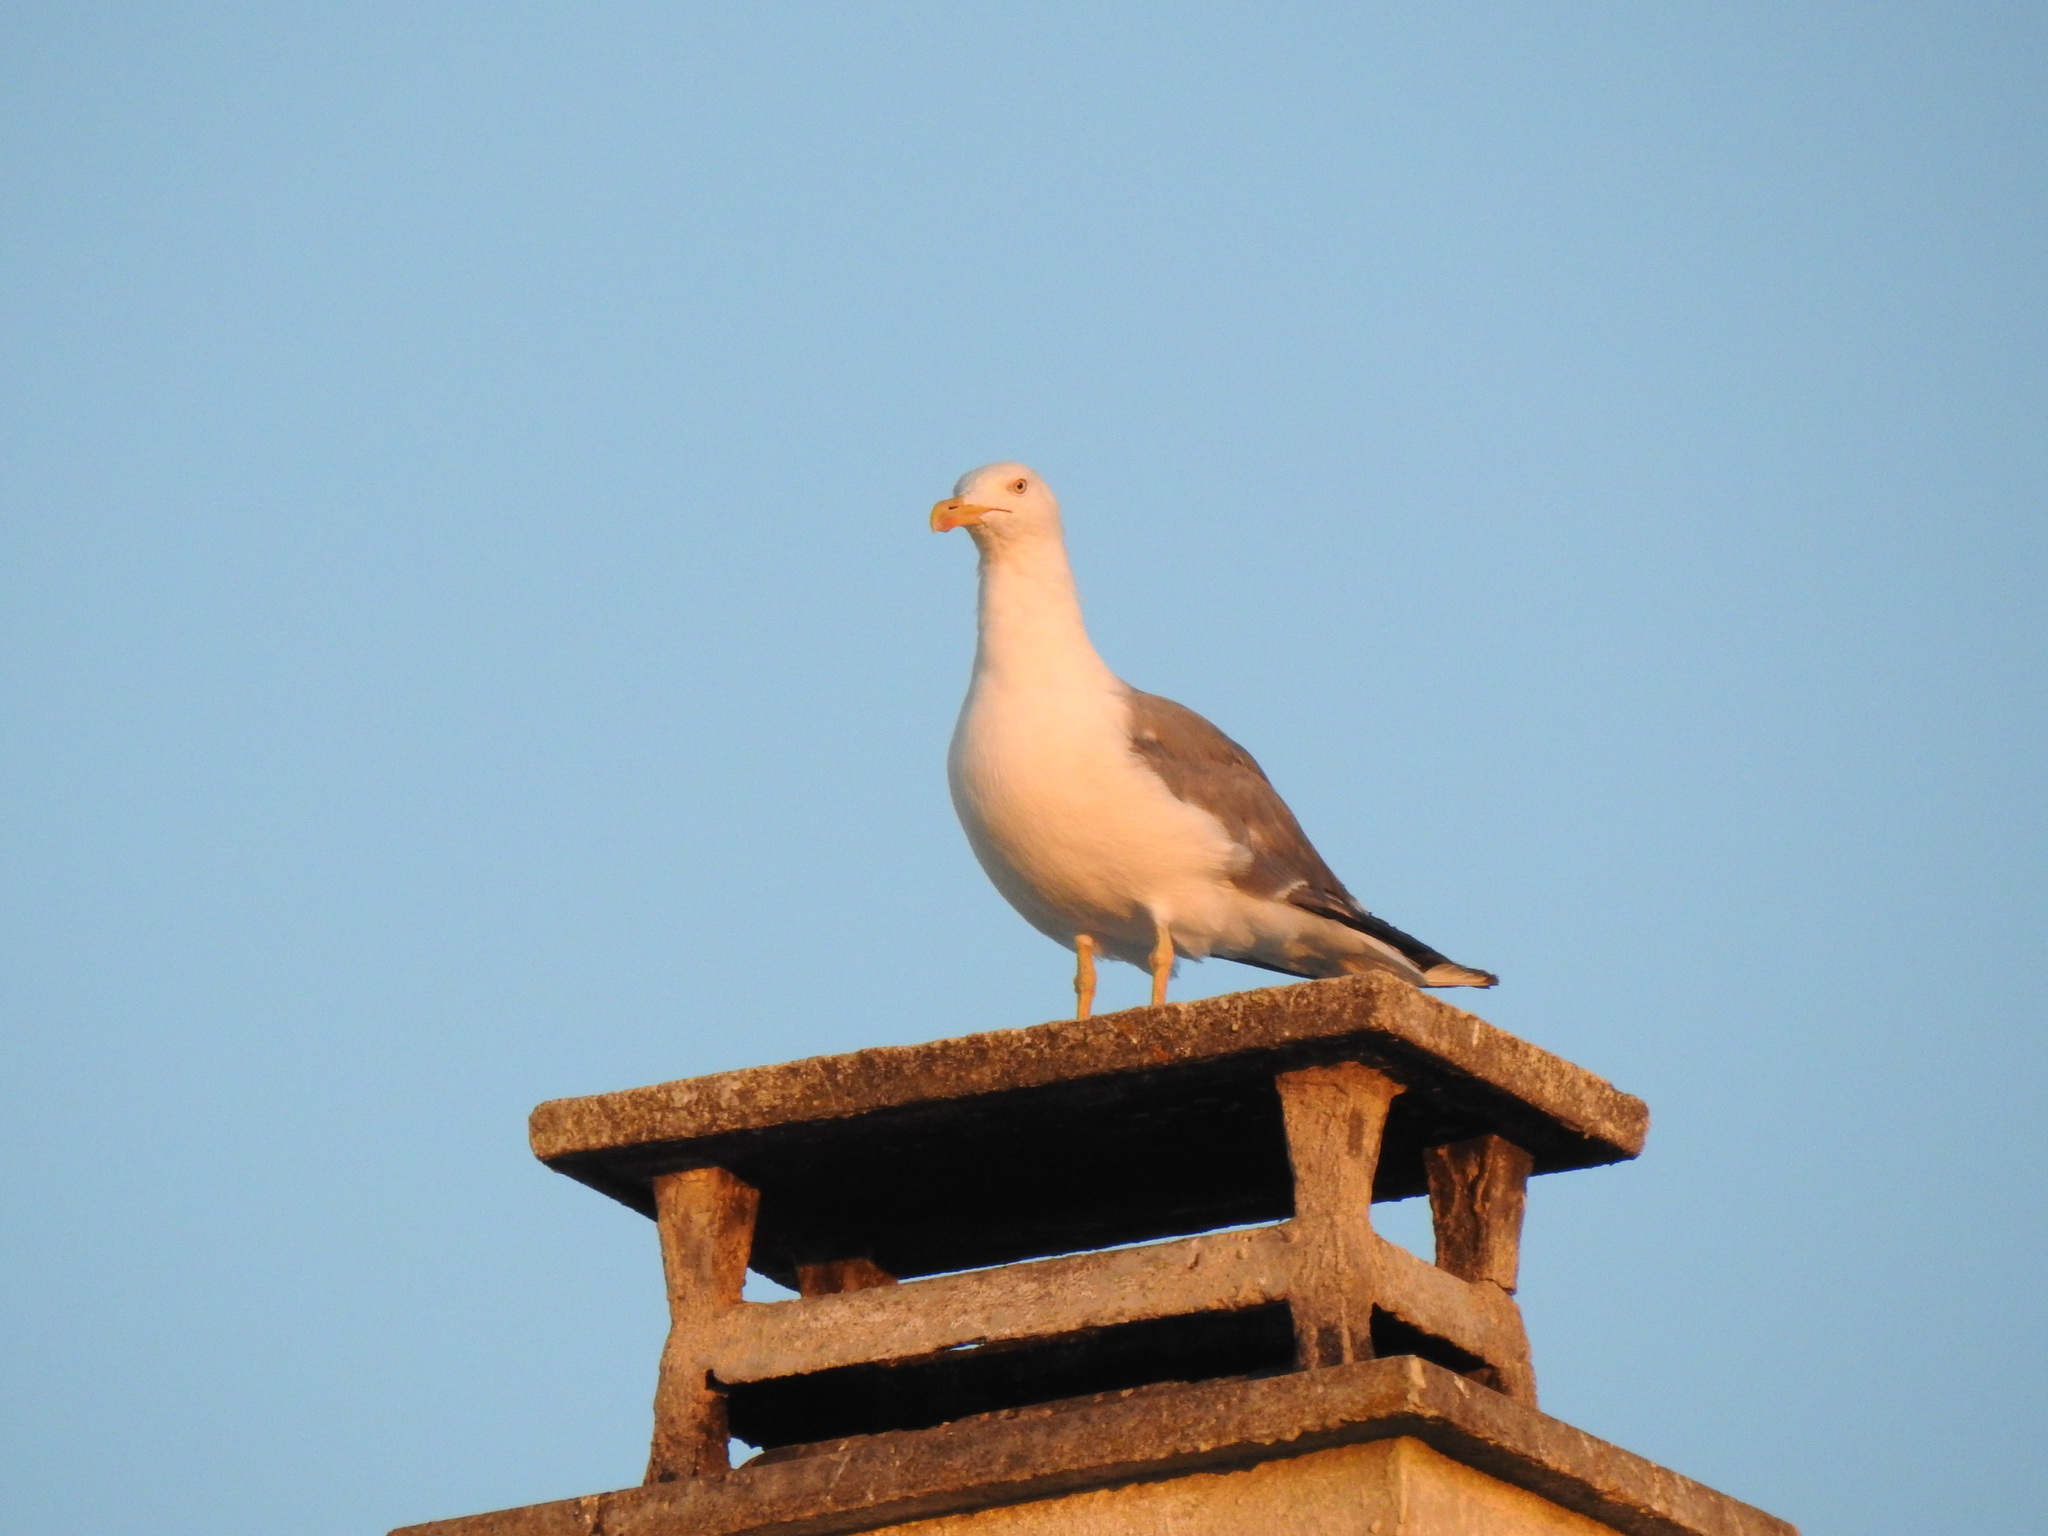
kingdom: Animalia
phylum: Chordata
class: Aves
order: Charadriiformes
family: Laridae
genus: Larus
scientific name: Larus michahellis
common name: Yellow-legged gull
